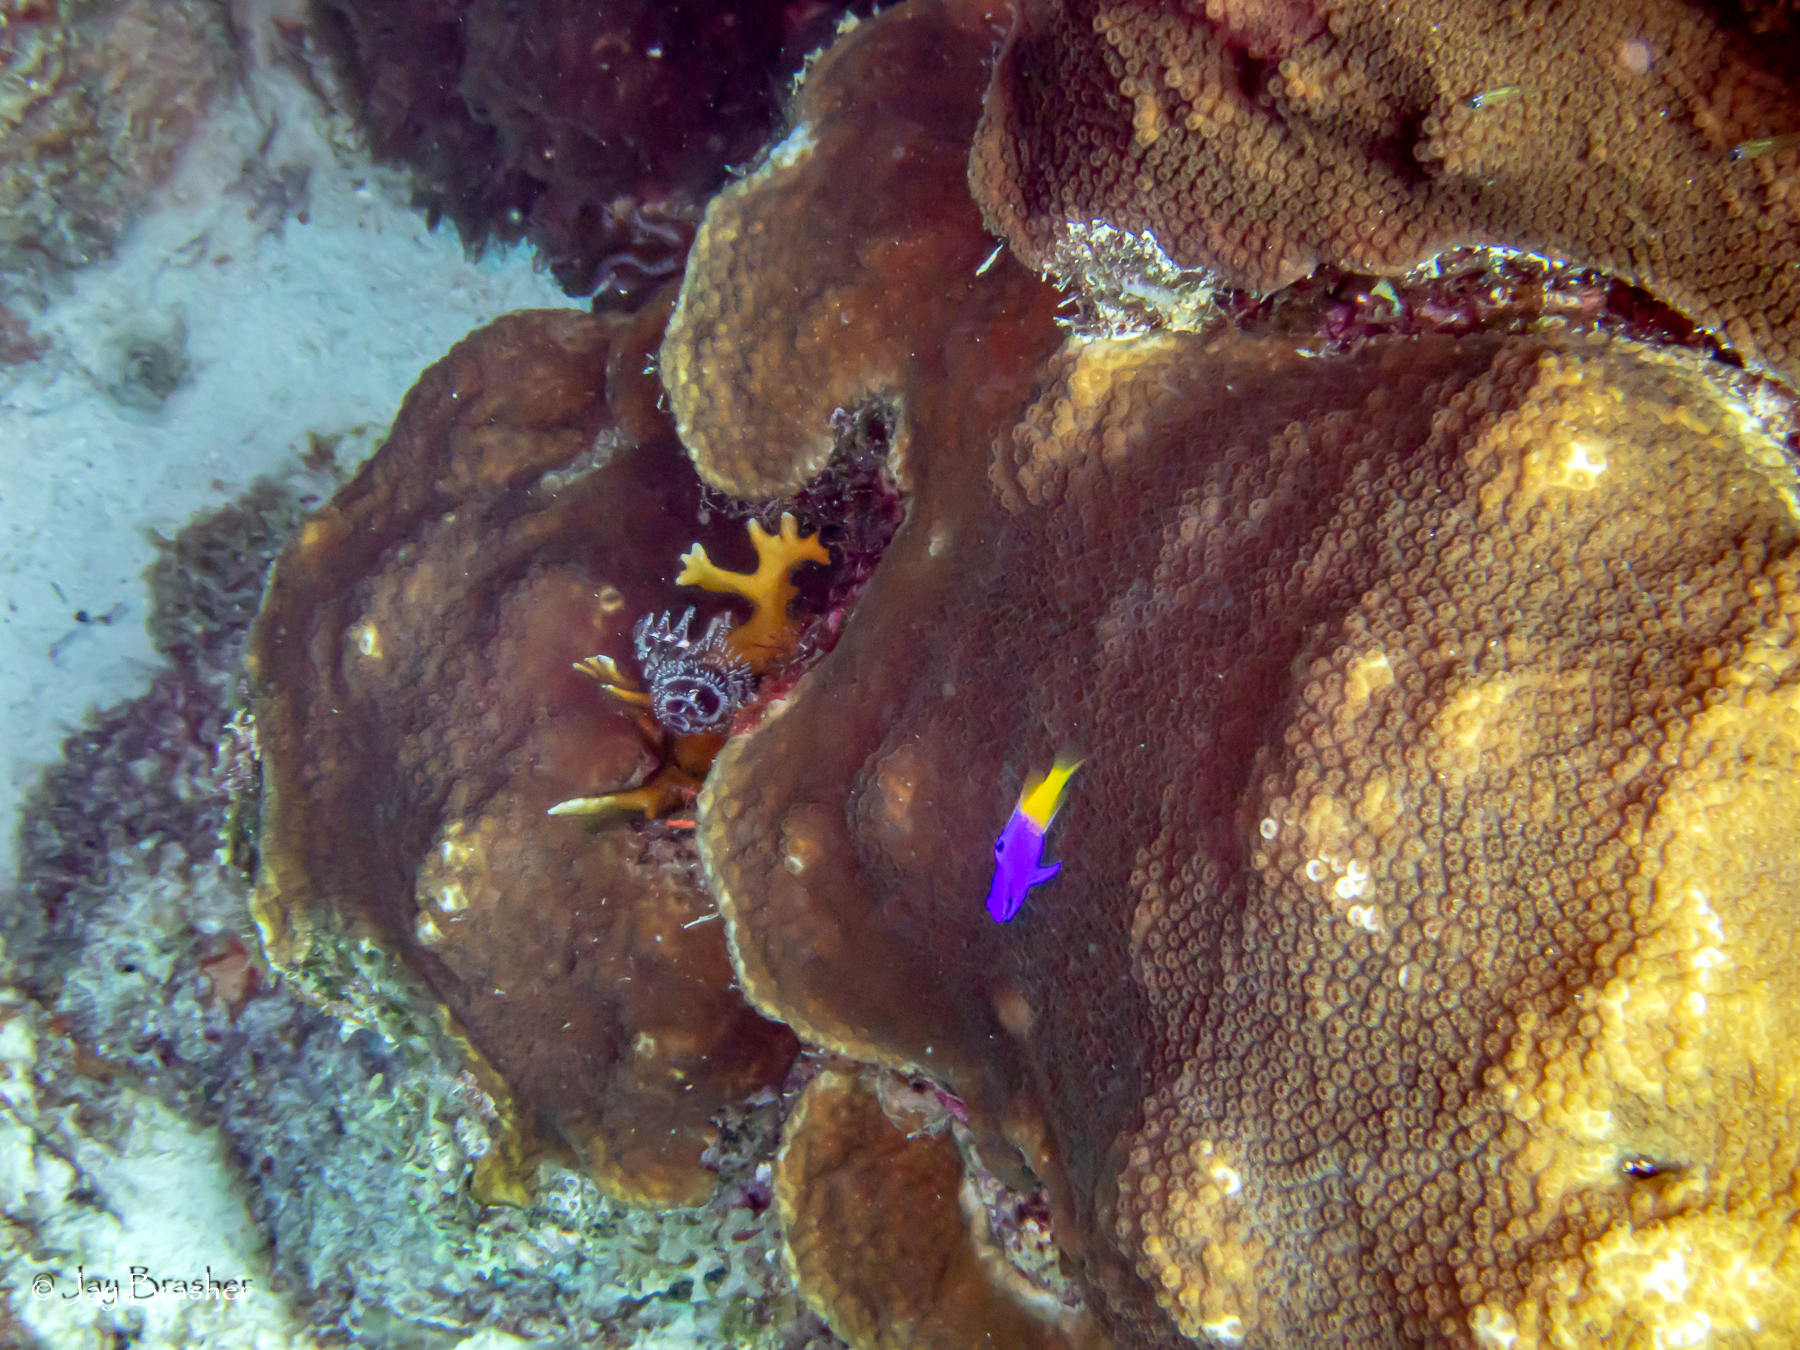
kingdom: Animalia
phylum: Chordata
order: Perciformes
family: Grammatidae
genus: Gramma
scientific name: Gramma loreto
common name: Fairy basslet
